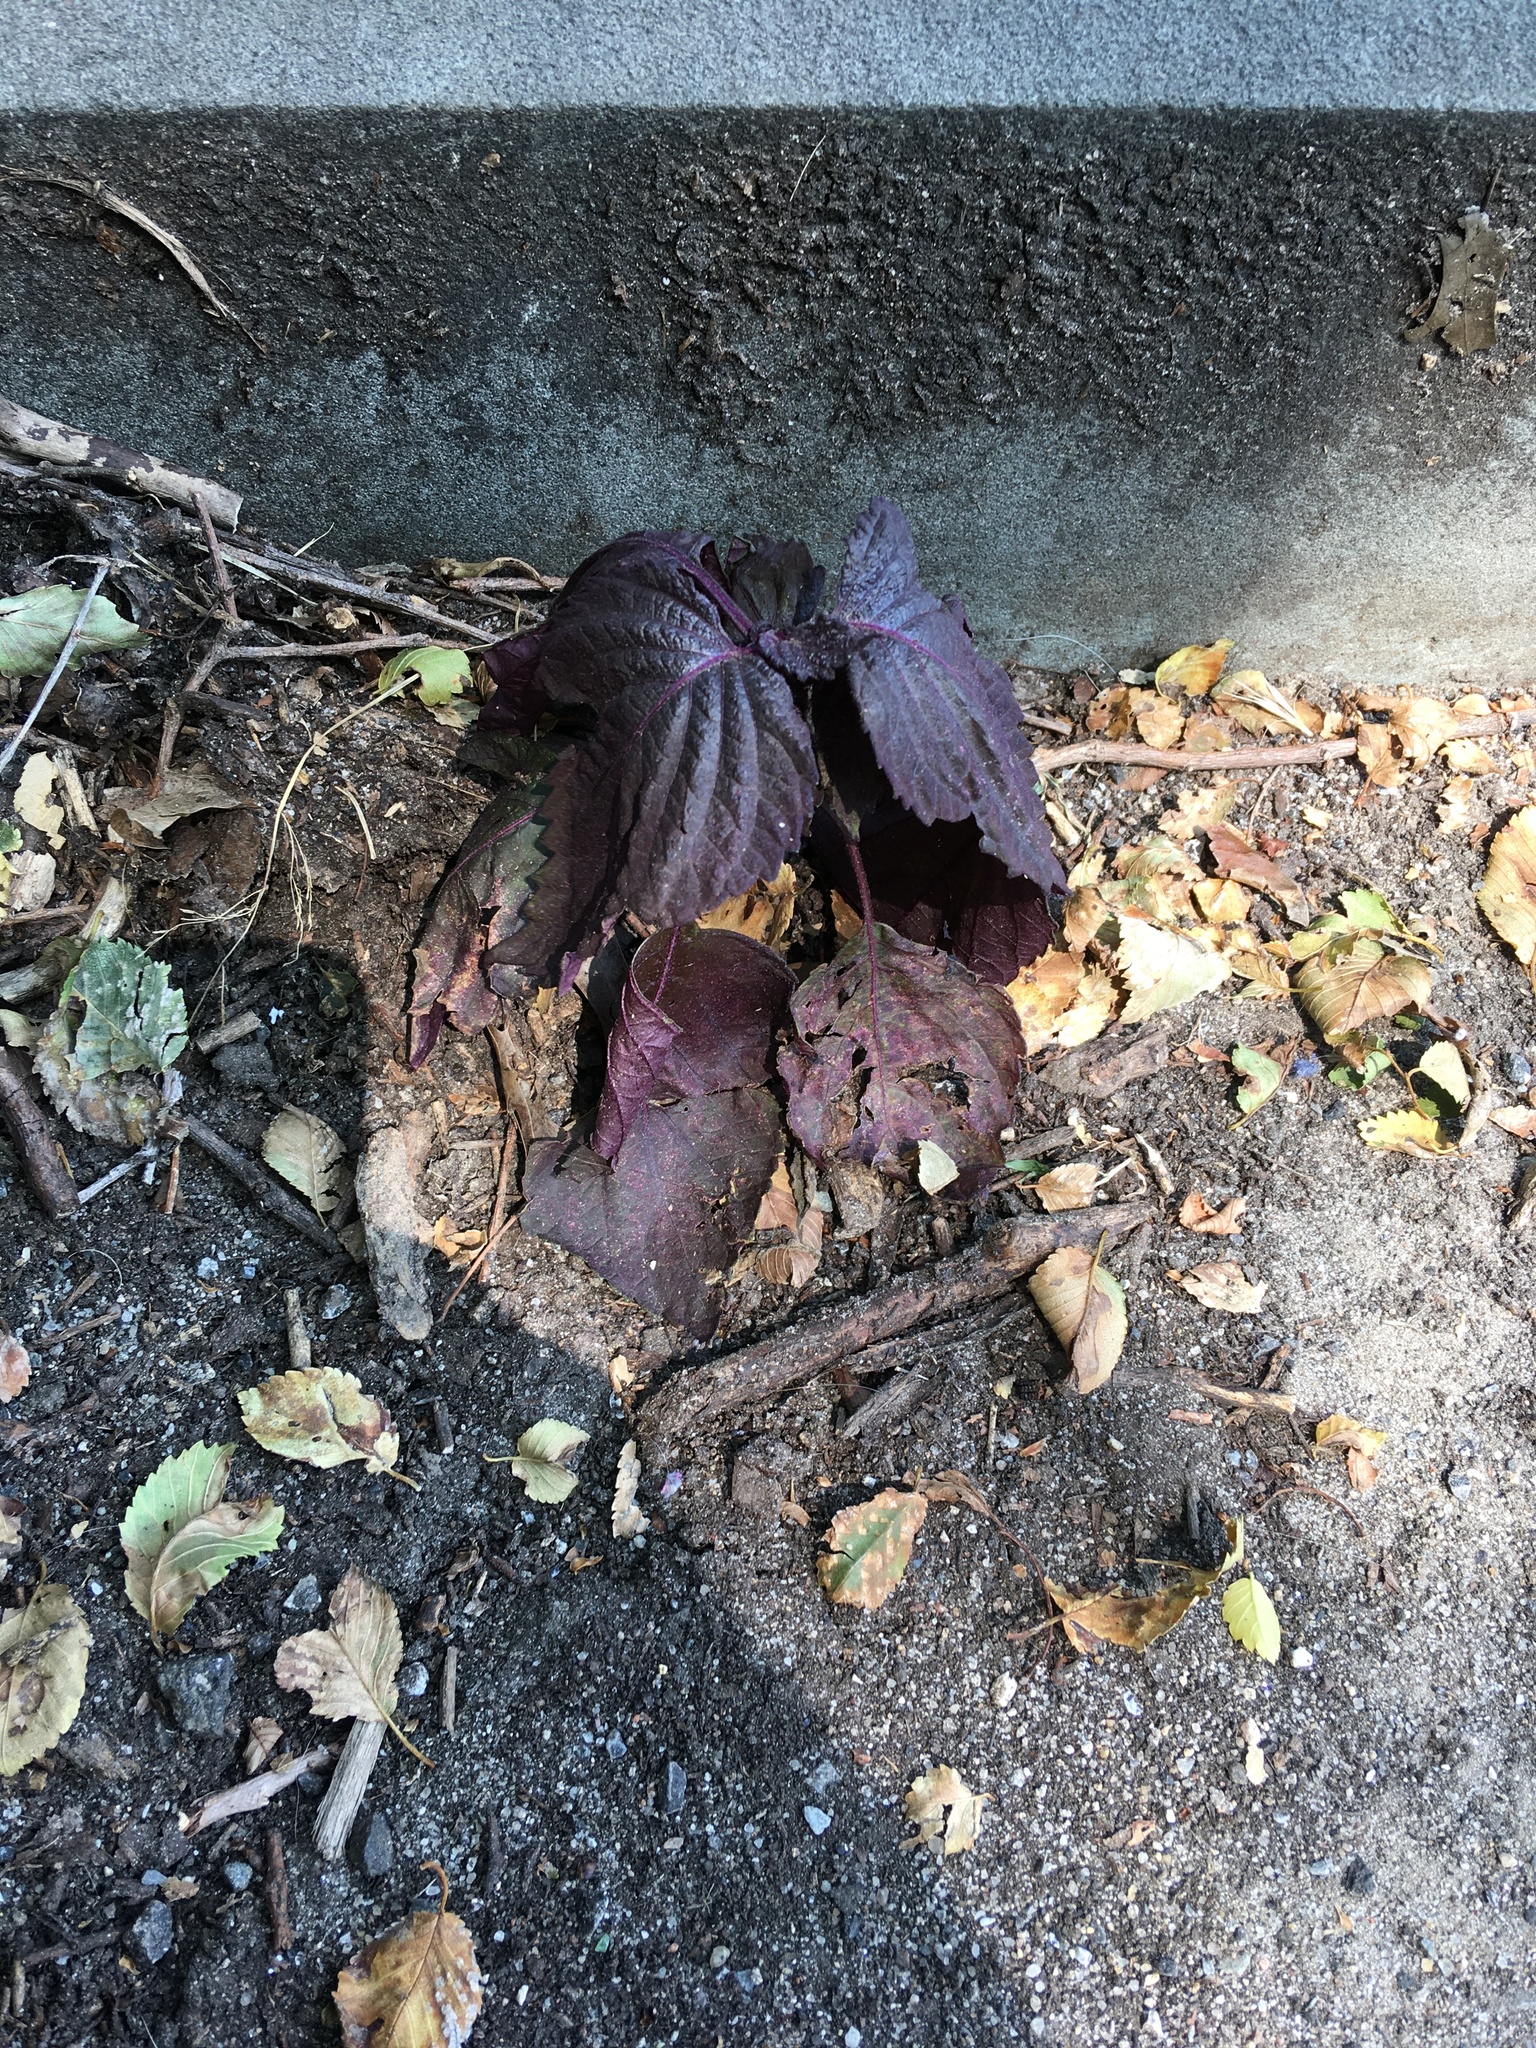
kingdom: Plantae
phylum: Tracheophyta
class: Magnoliopsida
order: Lamiales
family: Lamiaceae
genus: Perilla
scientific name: Perilla frutescens
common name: Perilla
